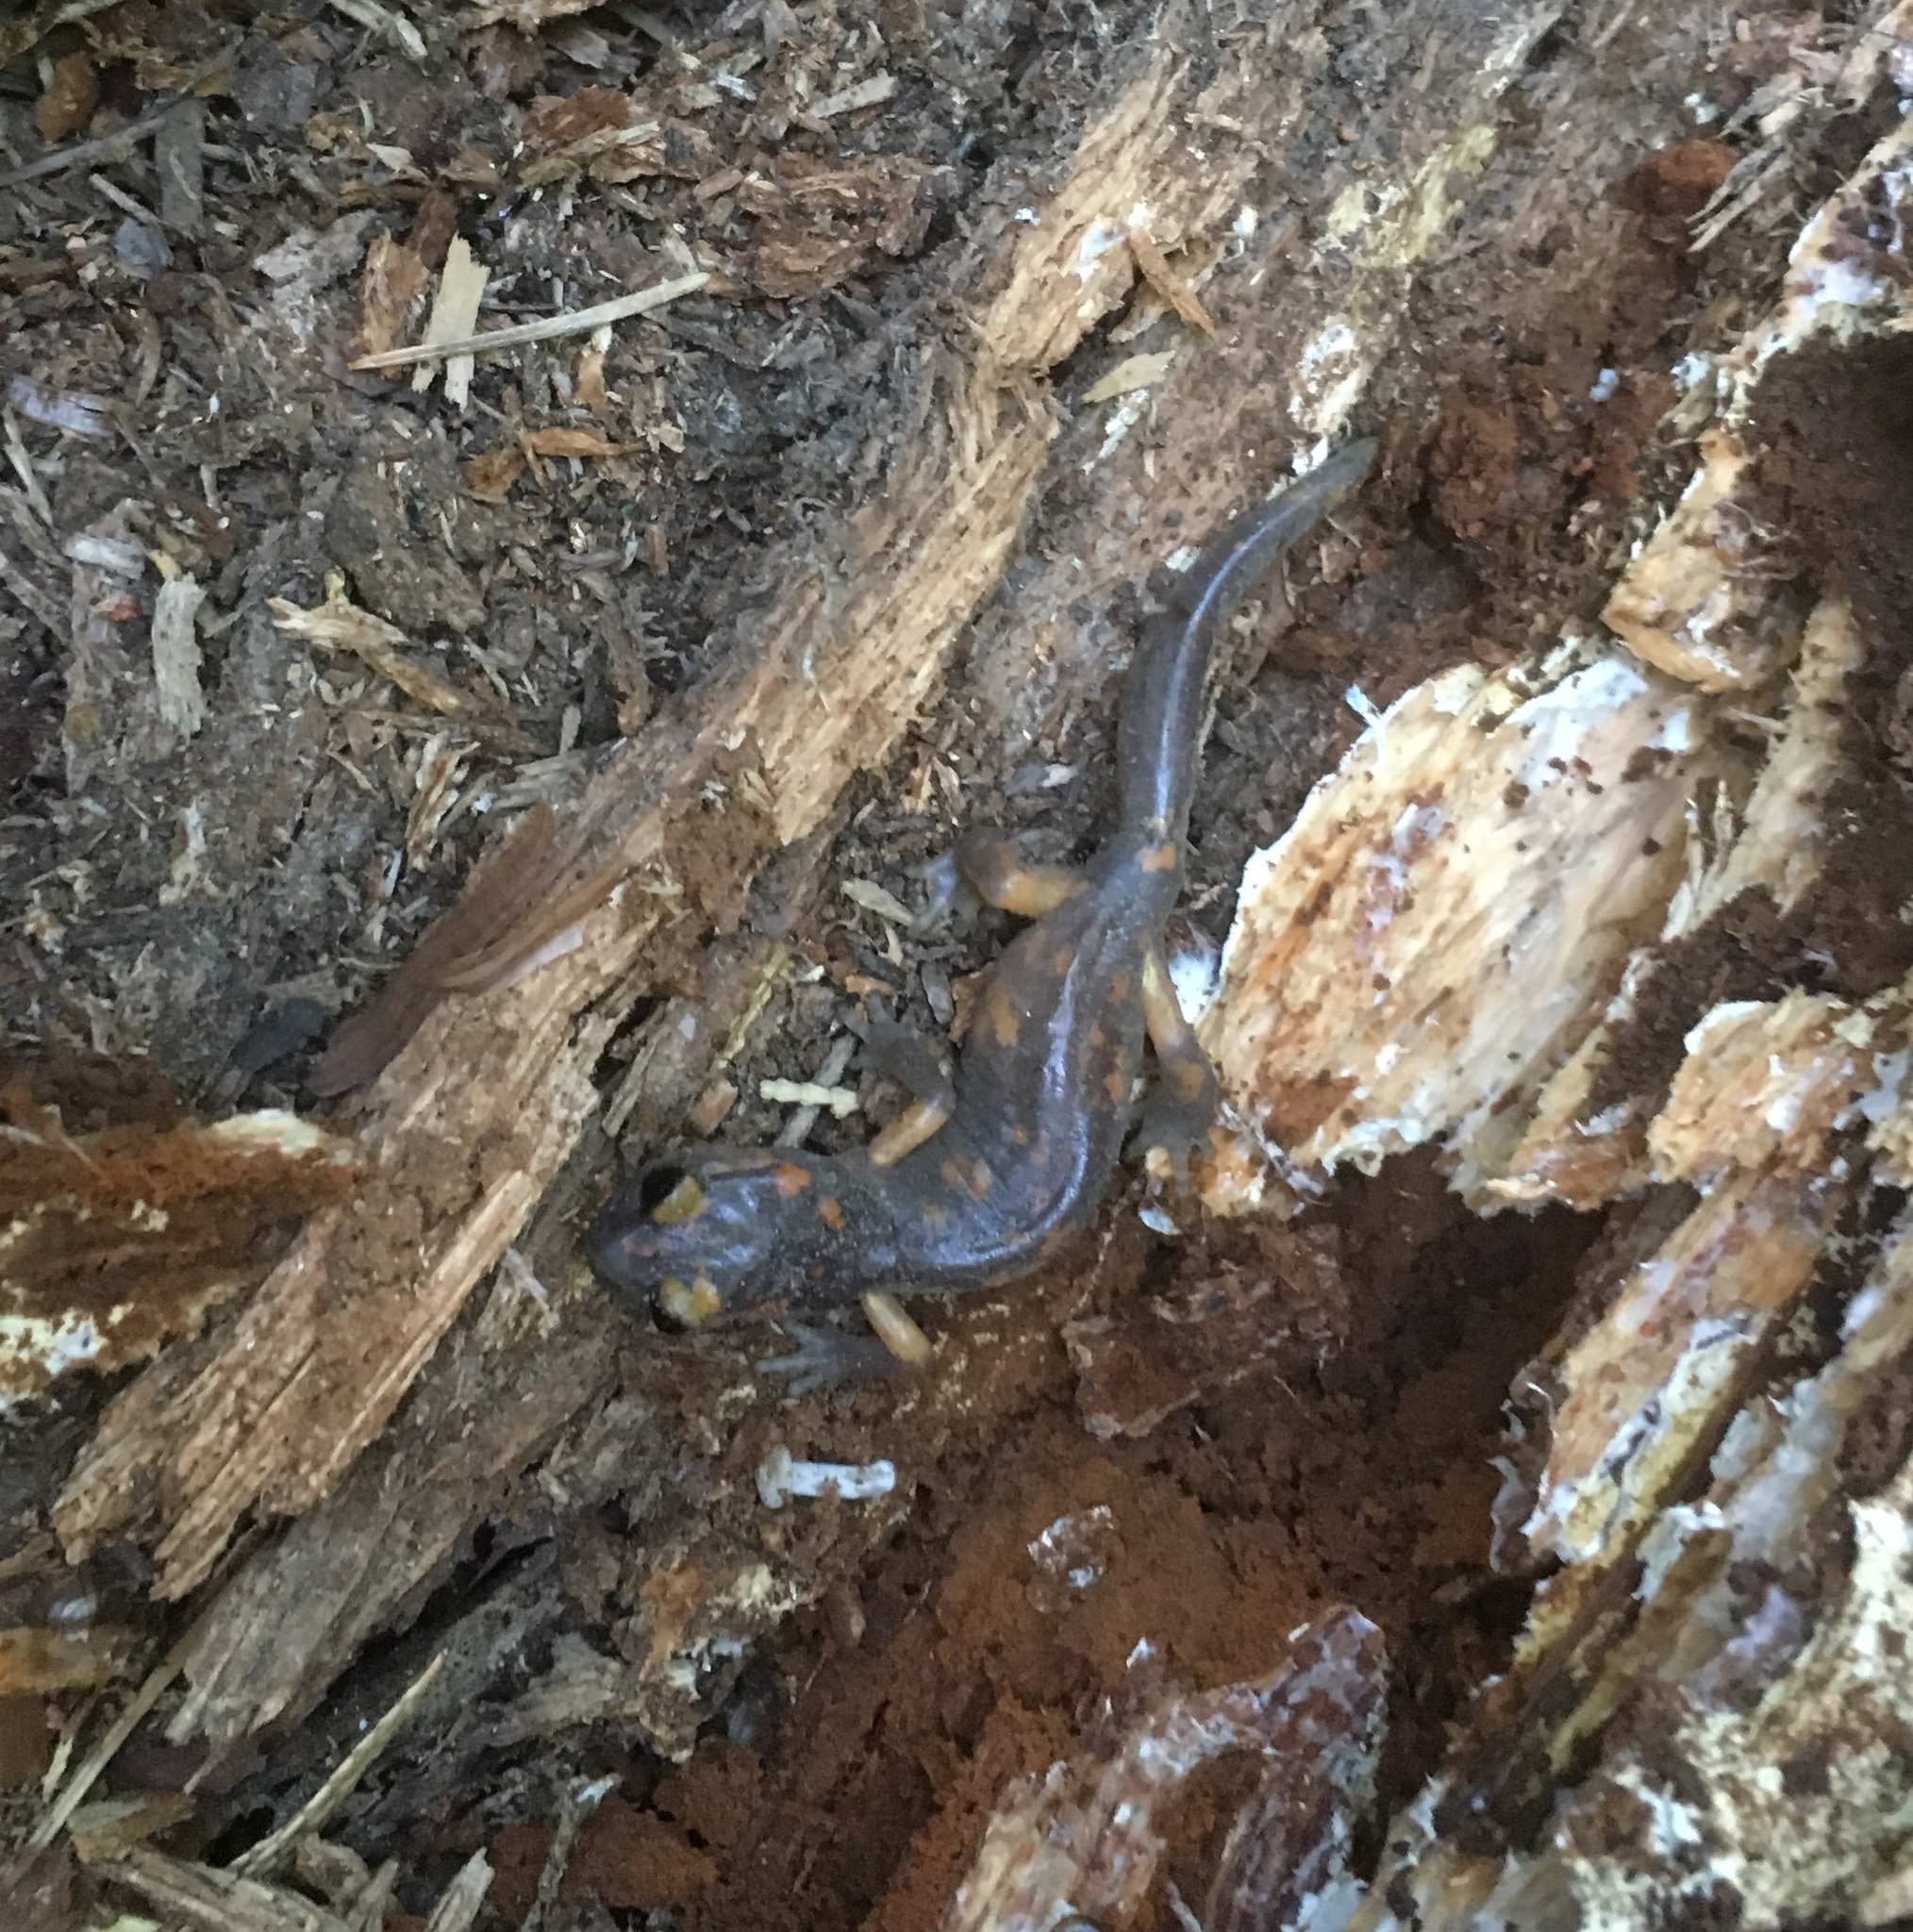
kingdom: Animalia
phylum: Chordata
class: Amphibia
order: Caudata
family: Plethodontidae
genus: Ensatina
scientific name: Ensatina eschscholtzii
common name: Ensatina
